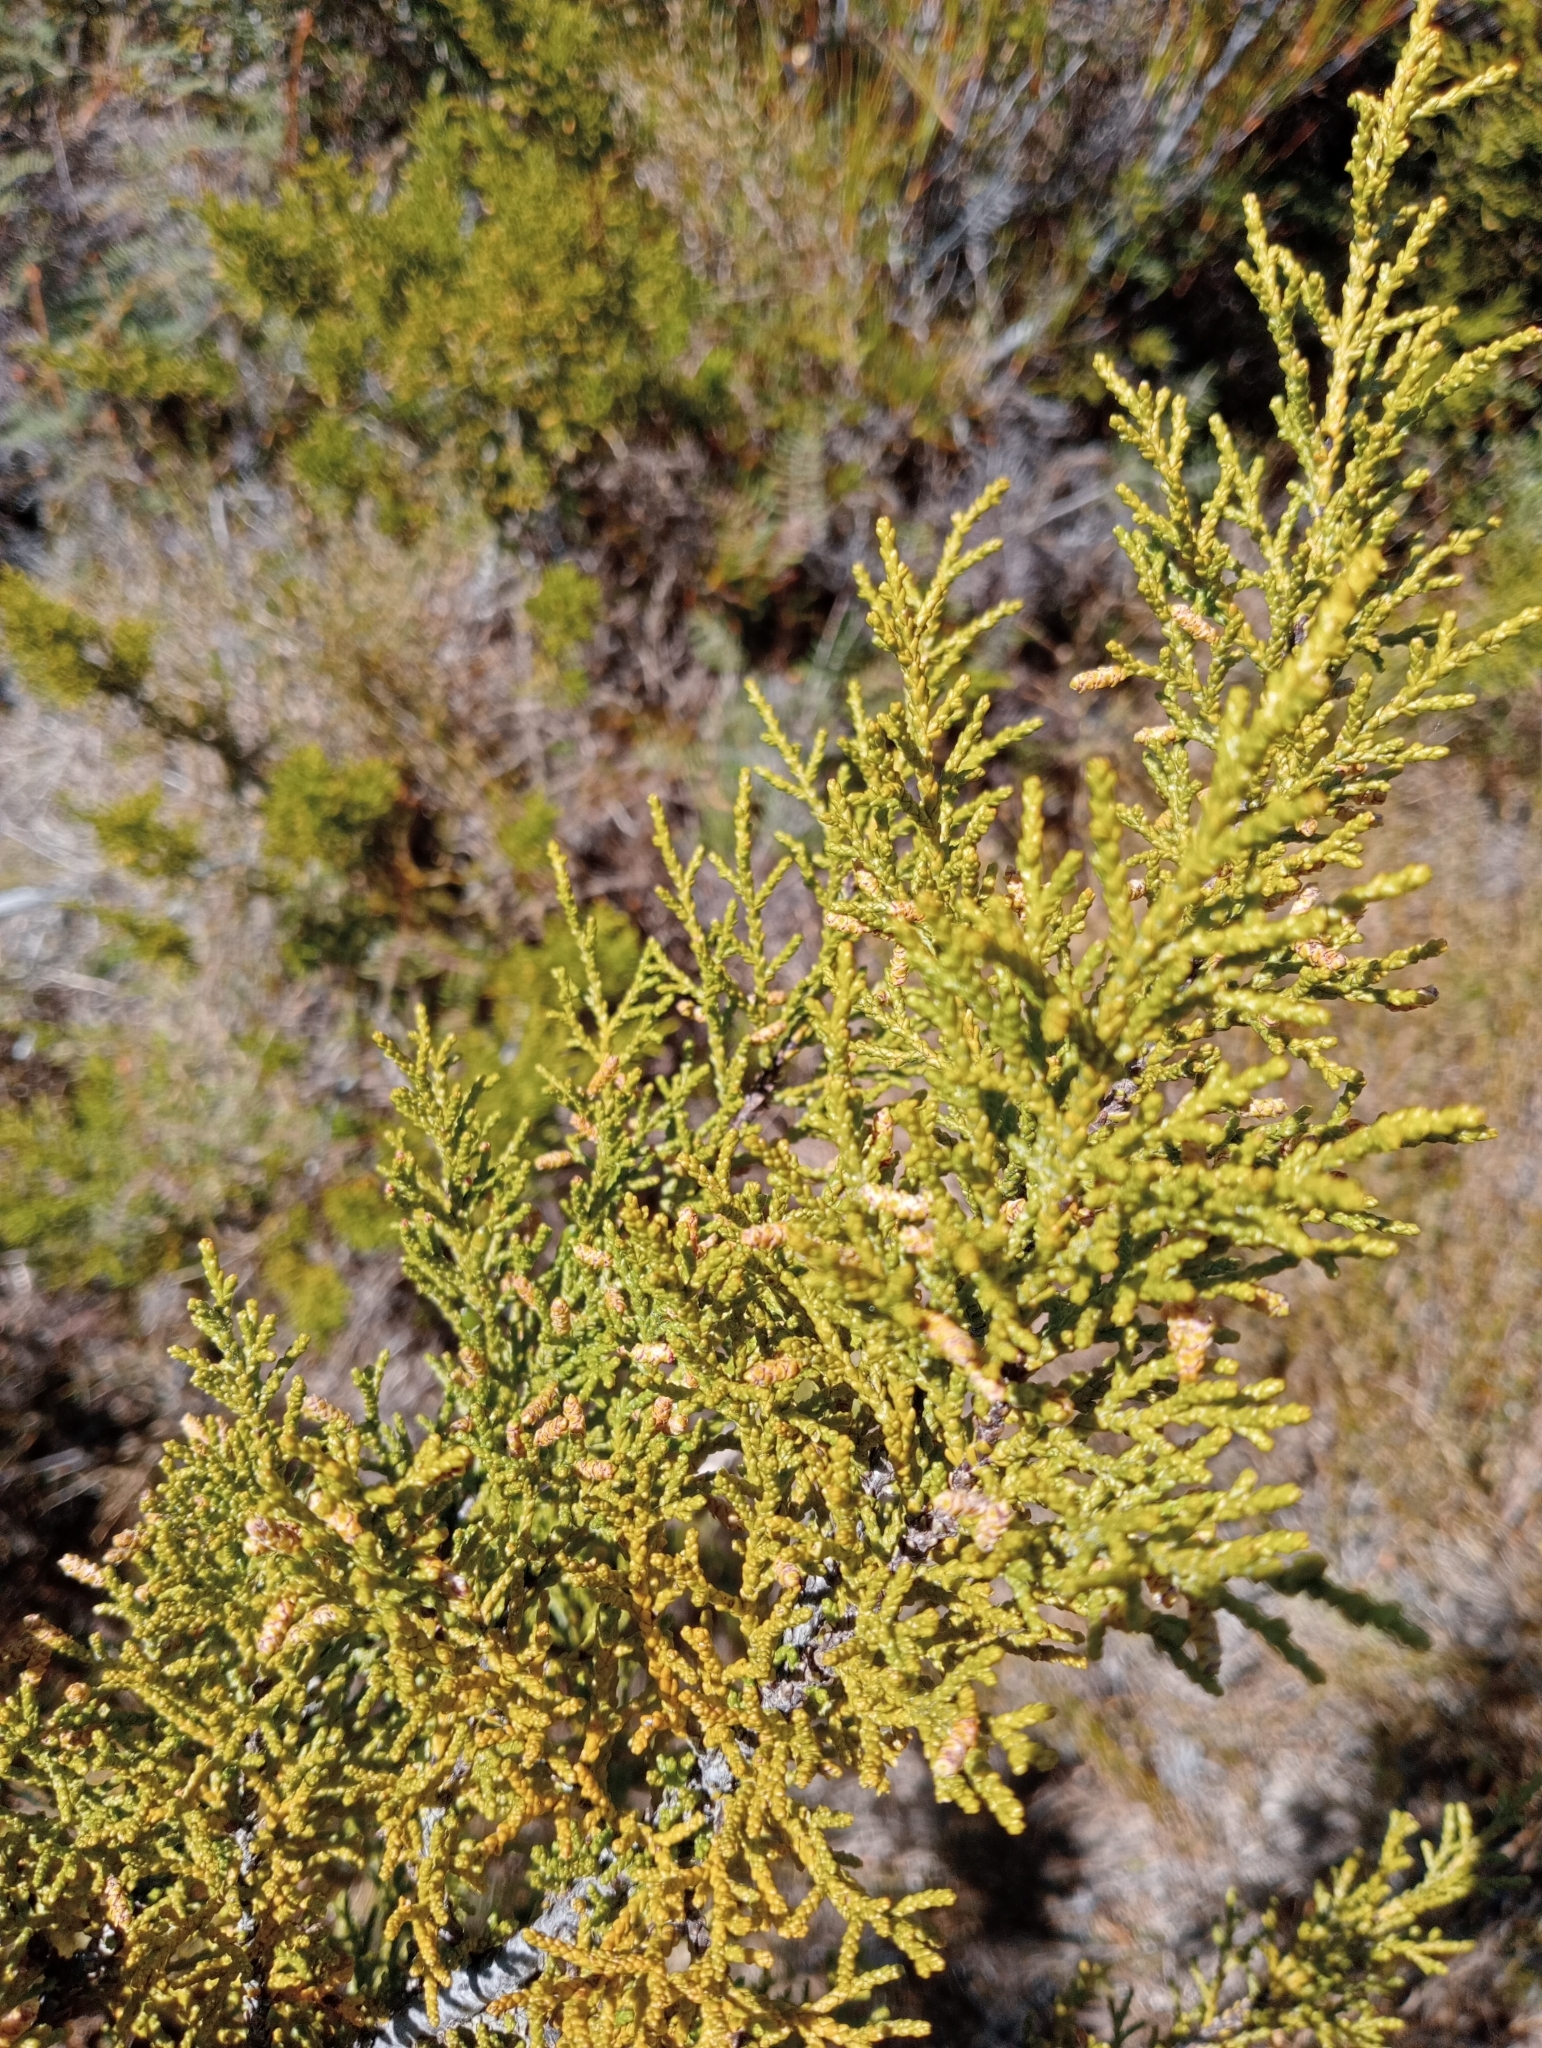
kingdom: Plantae
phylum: Tracheophyta
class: Pinopsida
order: Pinales
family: Podocarpaceae
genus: Lepidothamnus
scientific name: Lepidothamnus
